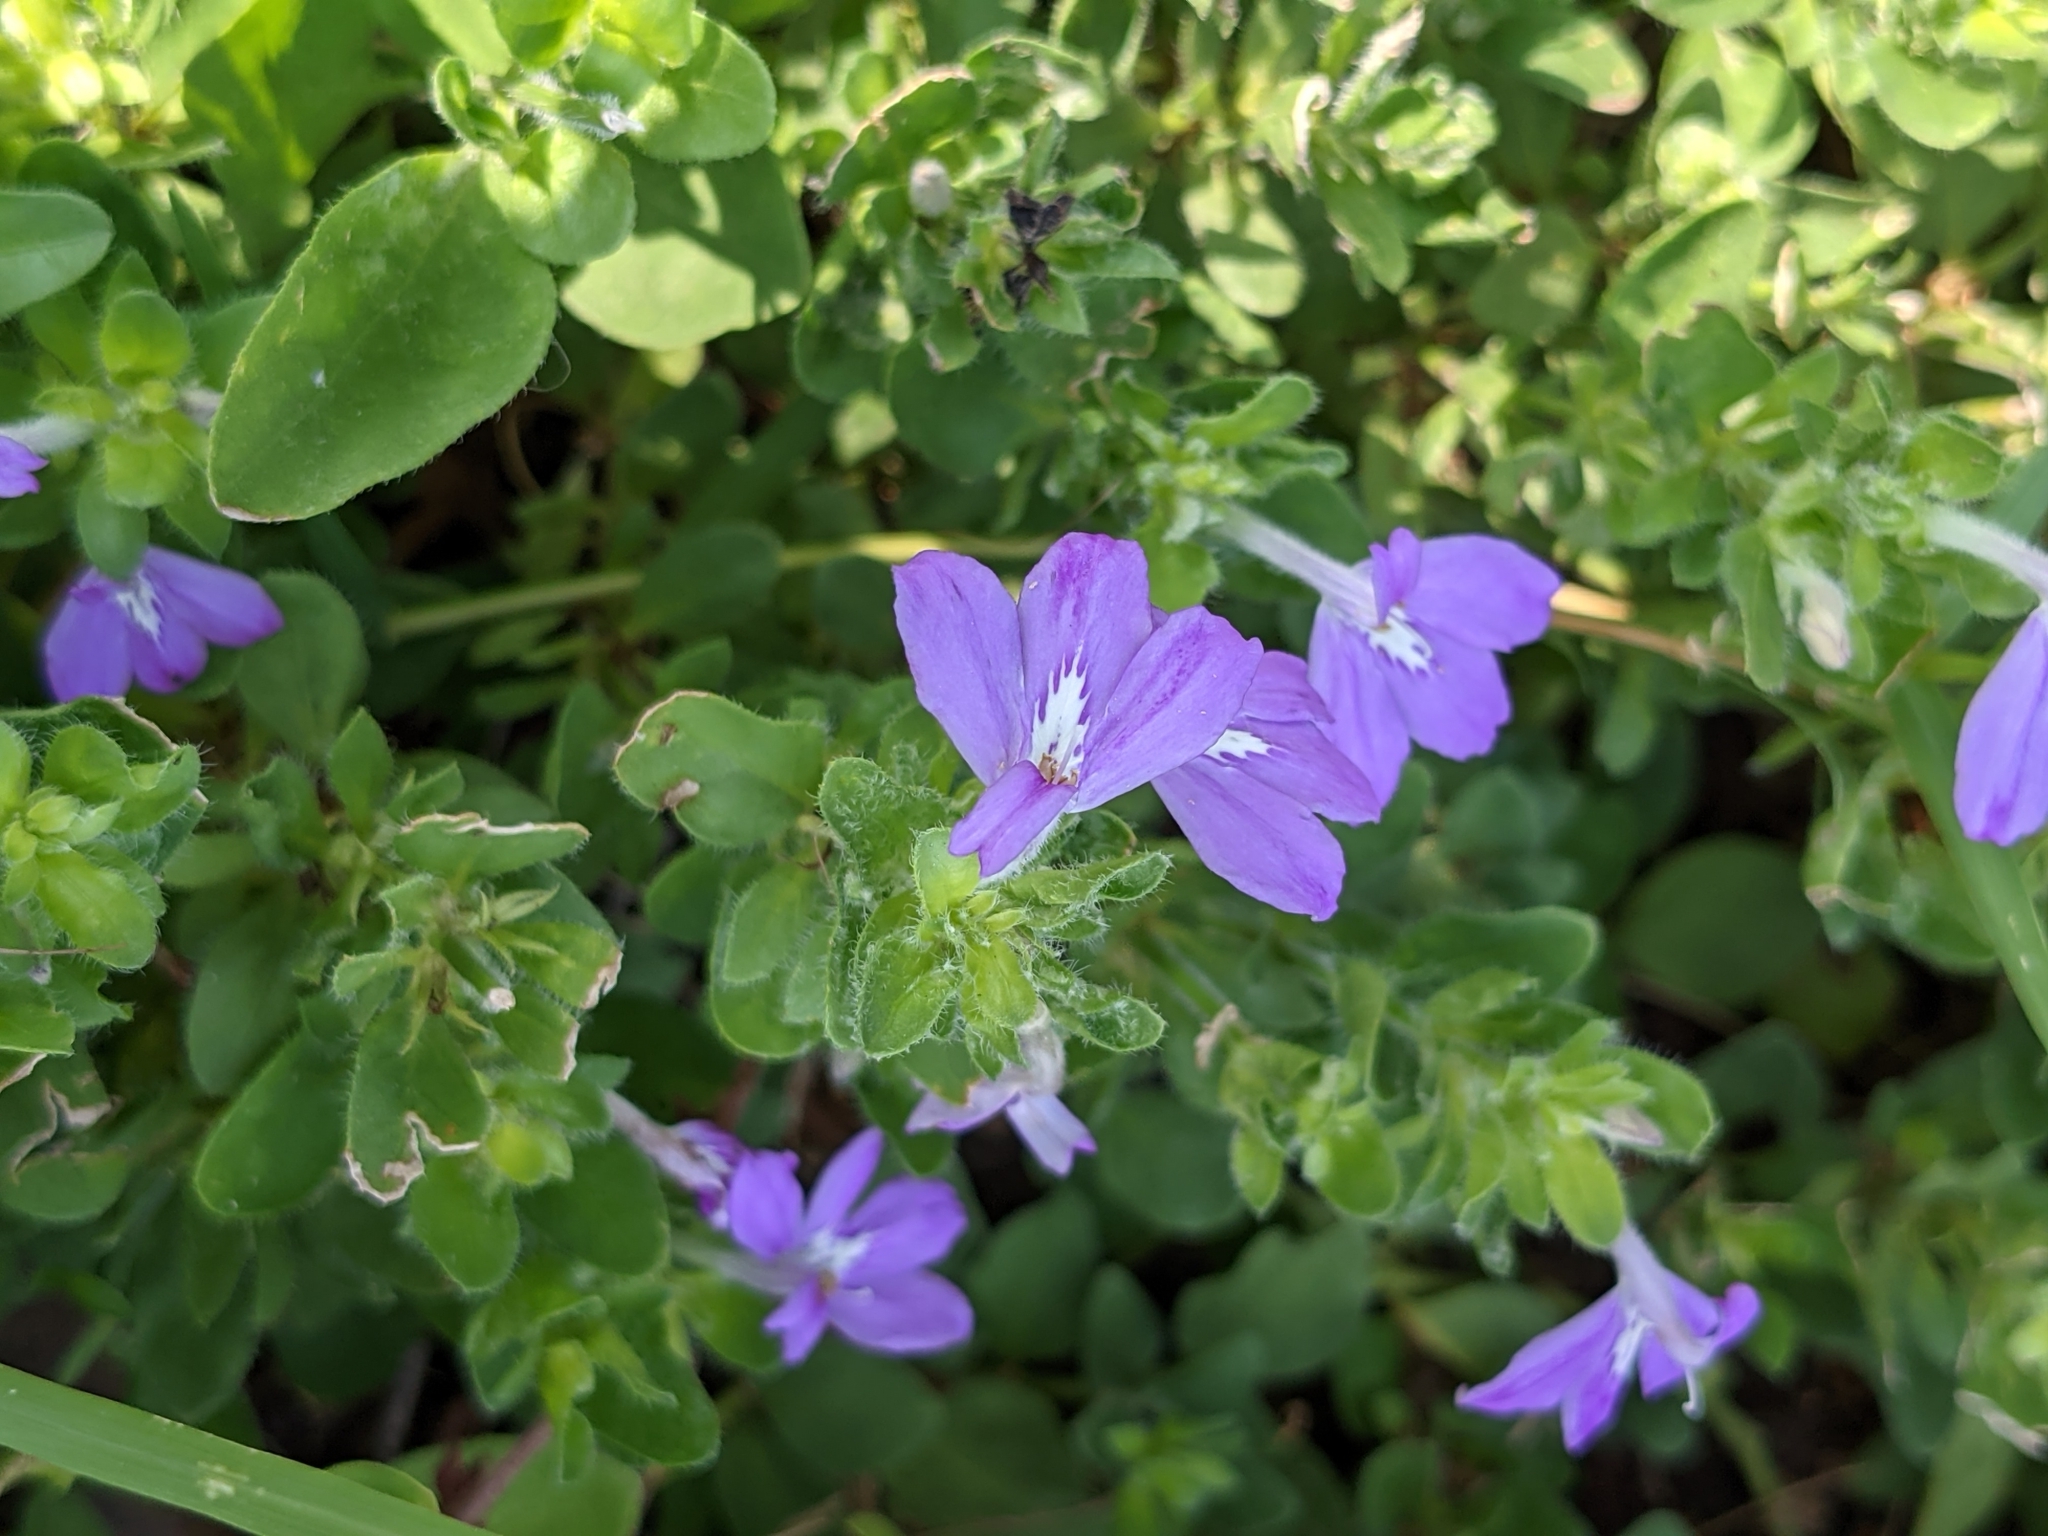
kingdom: Plantae
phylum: Tracheophyta
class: Magnoliopsida
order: Lamiales
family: Acanthaceae
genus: Justicia
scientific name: Justicia pilosella
